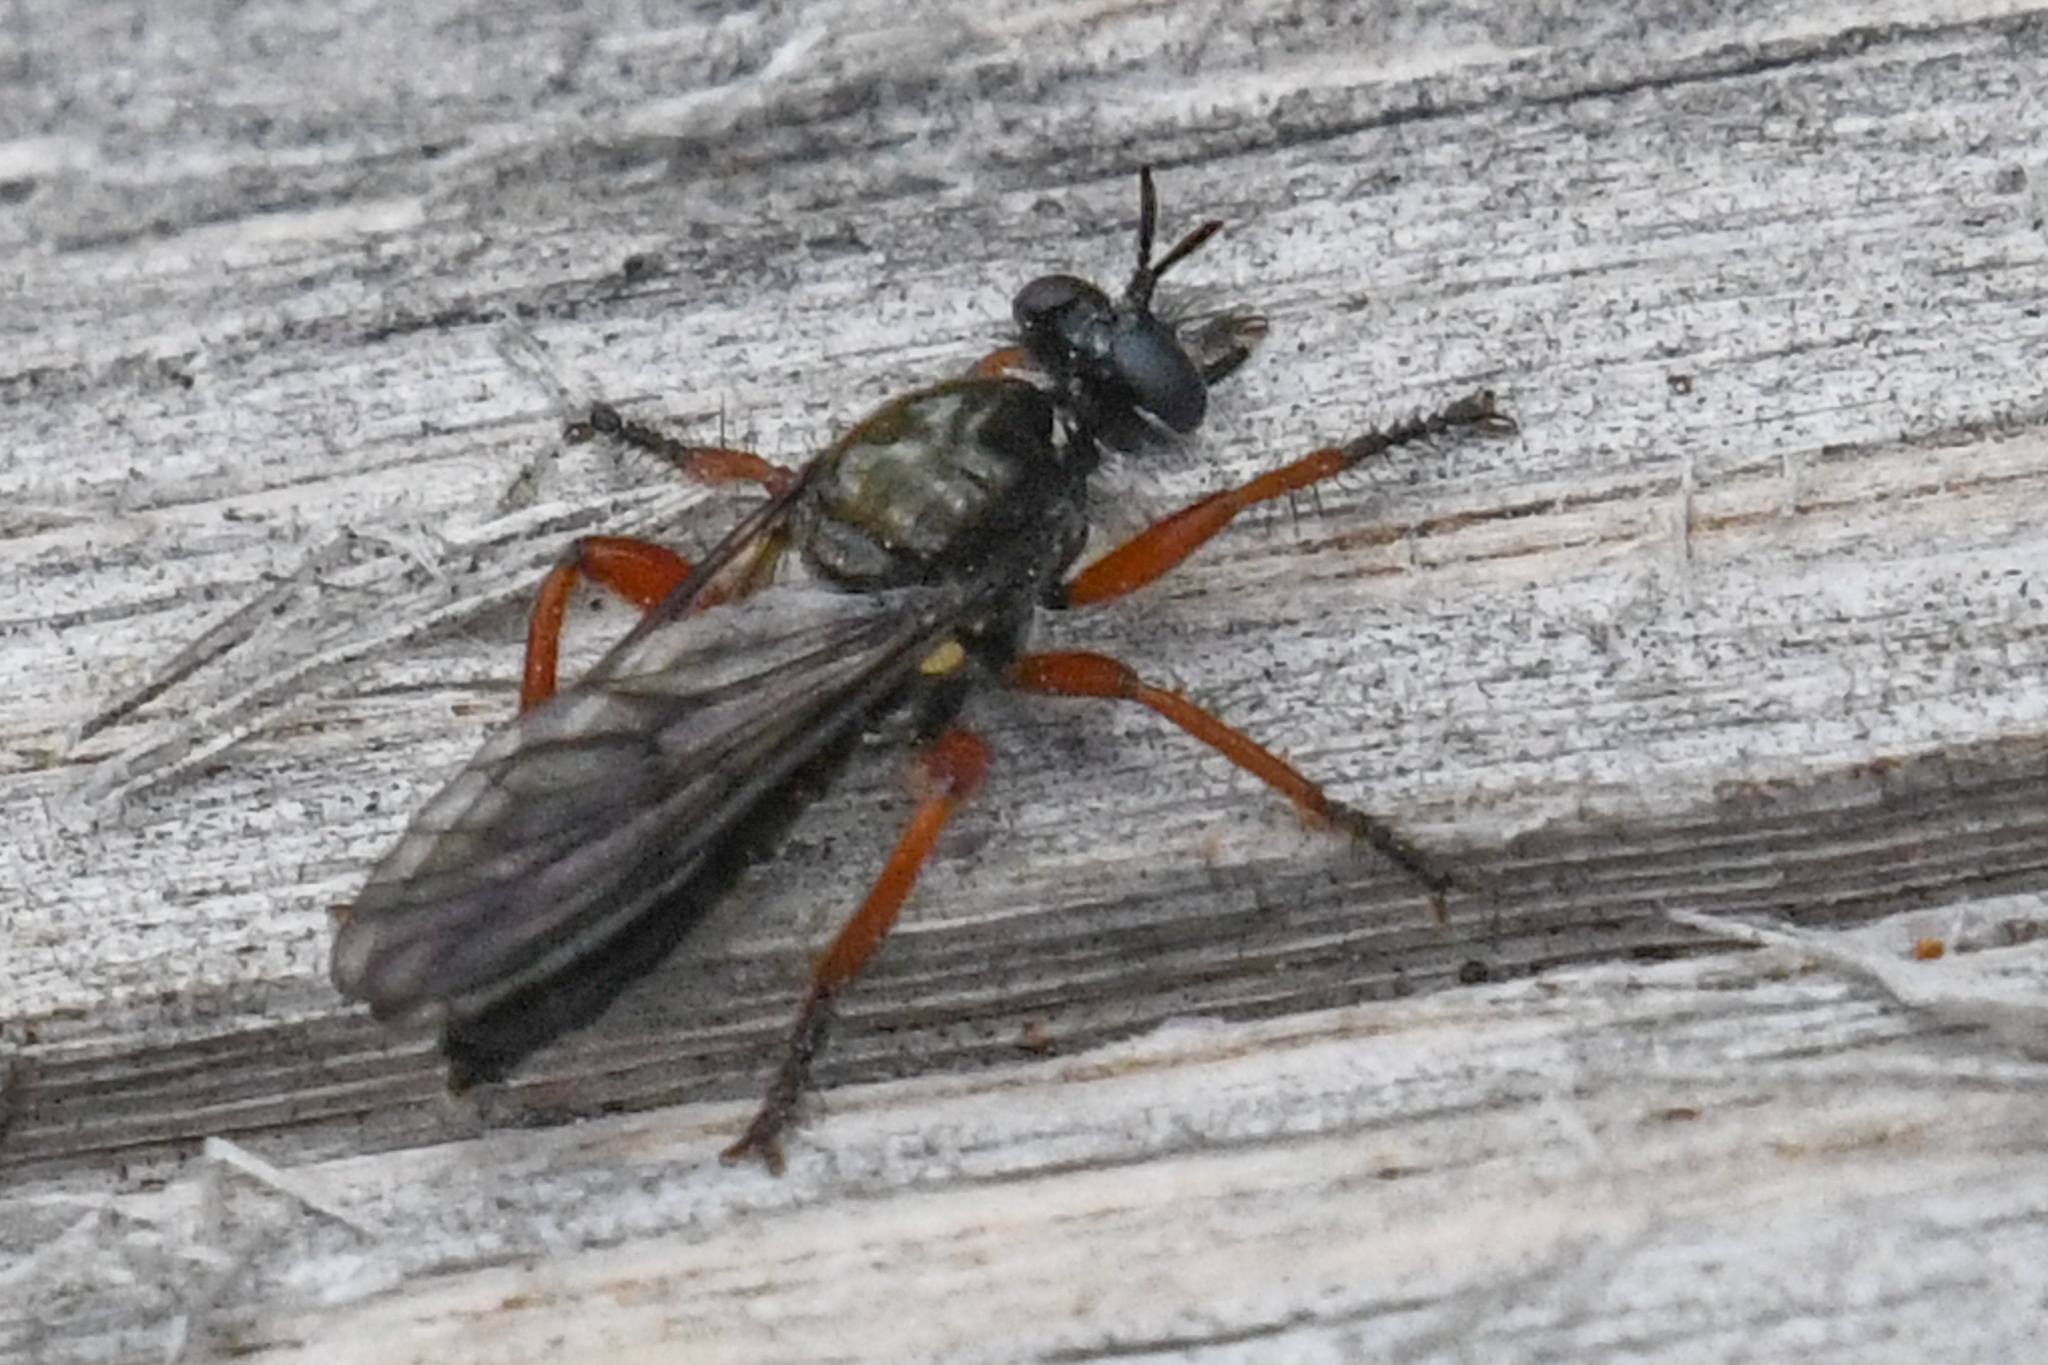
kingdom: Animalia
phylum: Arthropoda
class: Insecta
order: Diptera
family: Asilidae
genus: Laphria
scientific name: Laphria sadales
